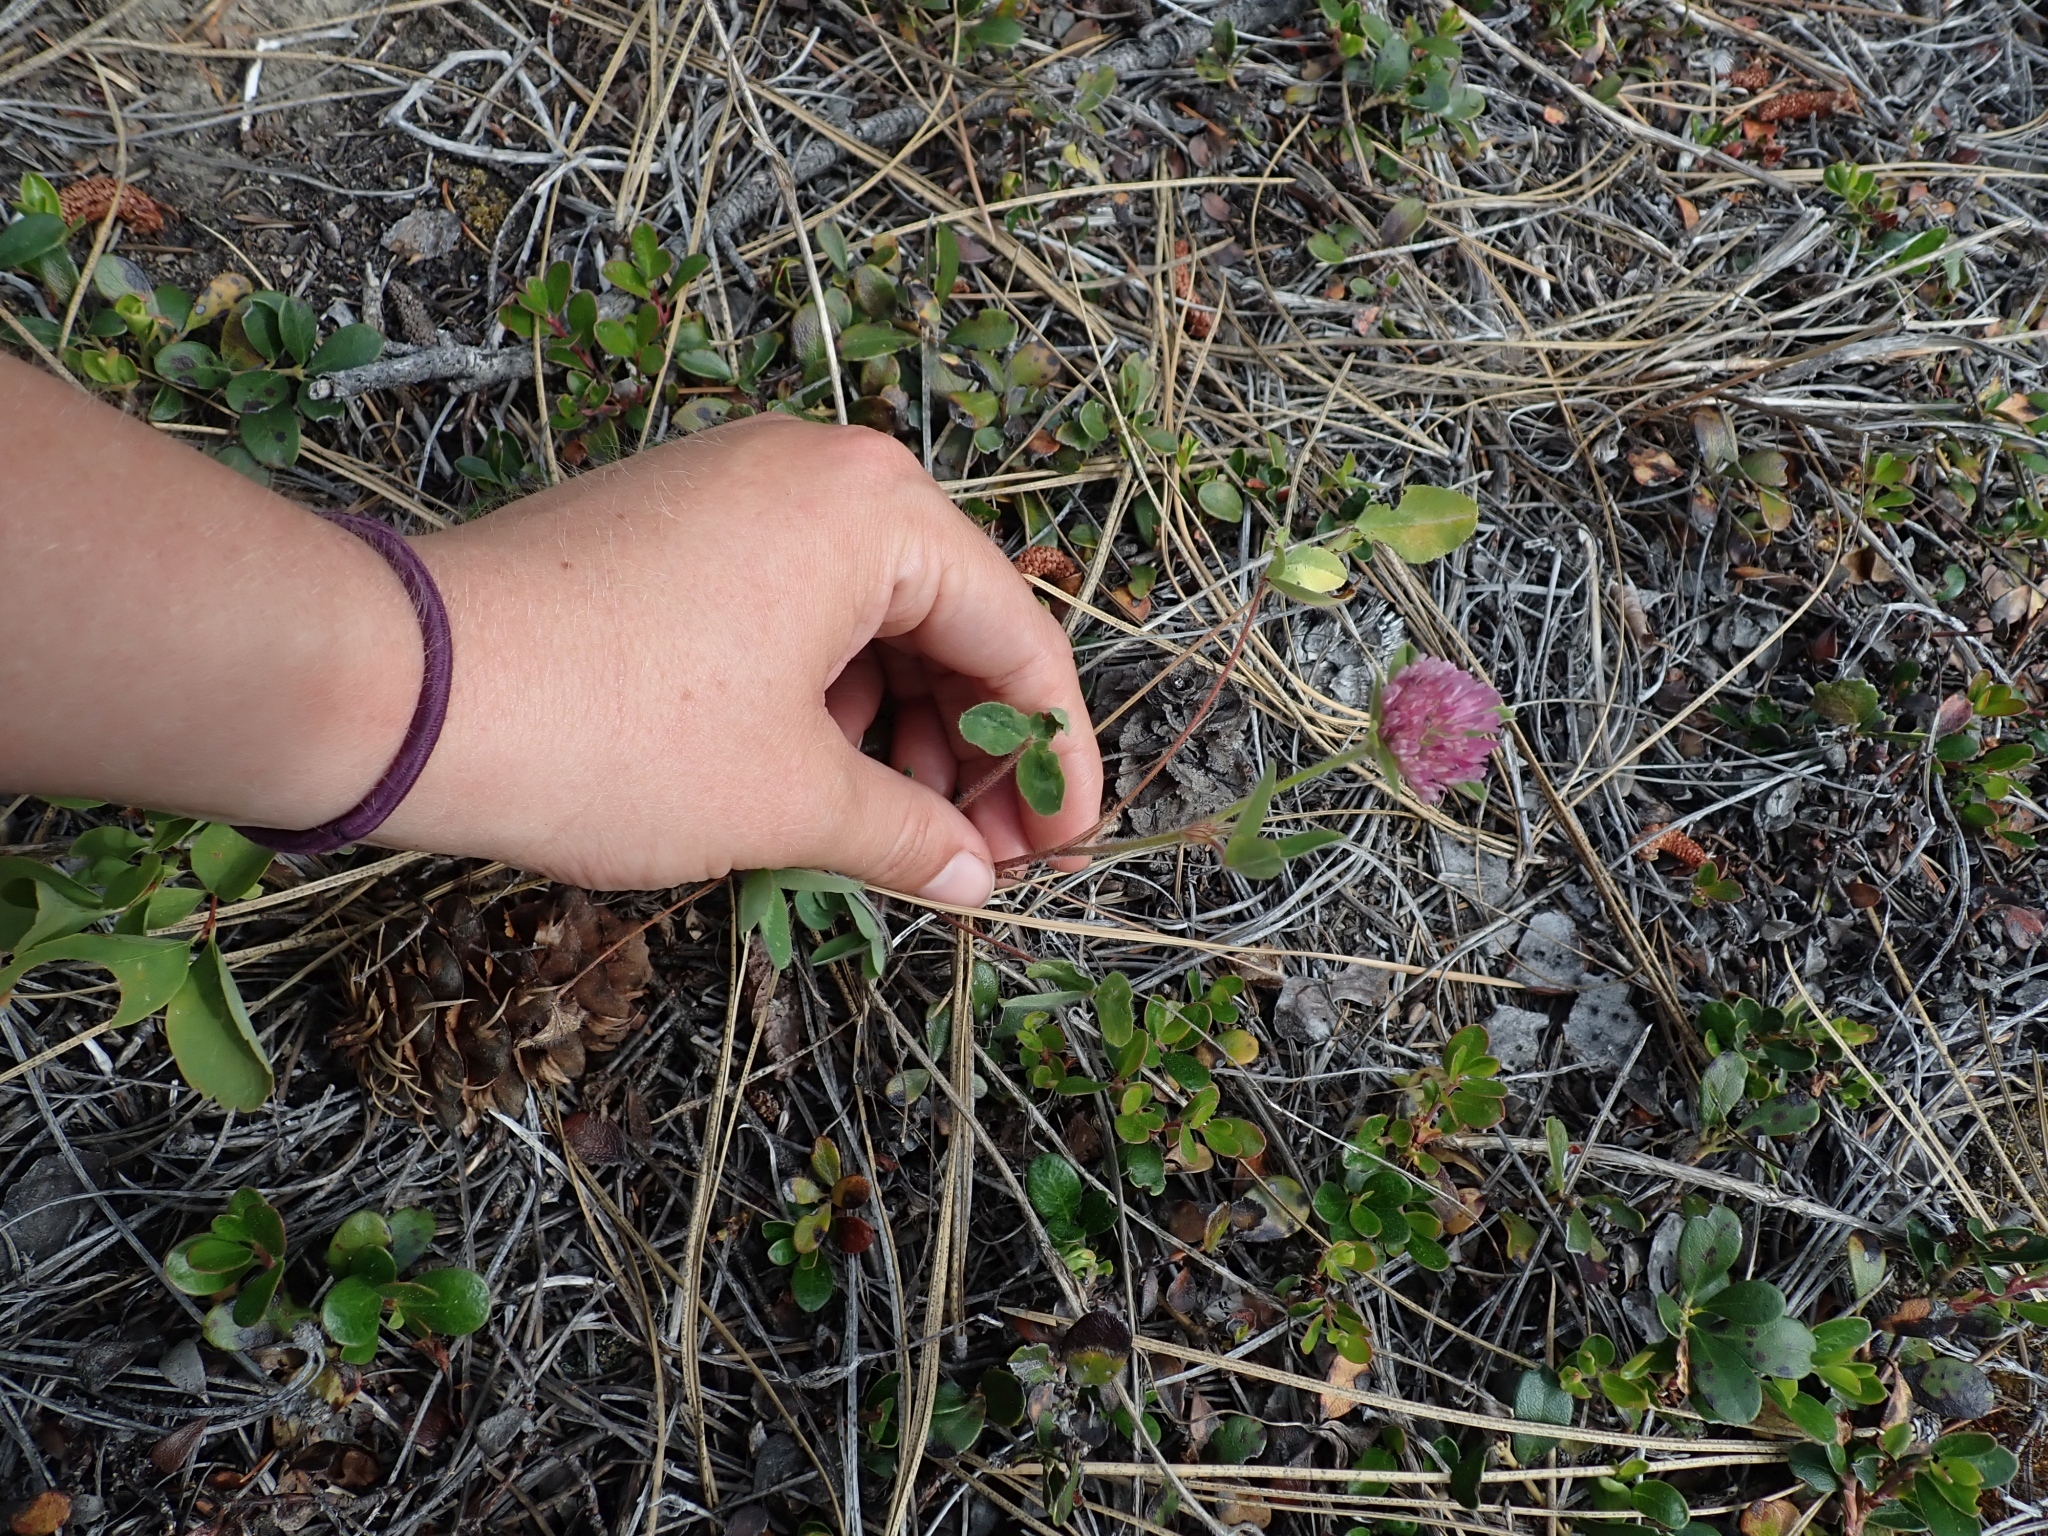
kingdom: Plantae
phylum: Tracheophyta
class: Magnoliopsida
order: Fabales
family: Fabaceae
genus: Trifolium
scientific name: Trifolium pratense
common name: Red clover
